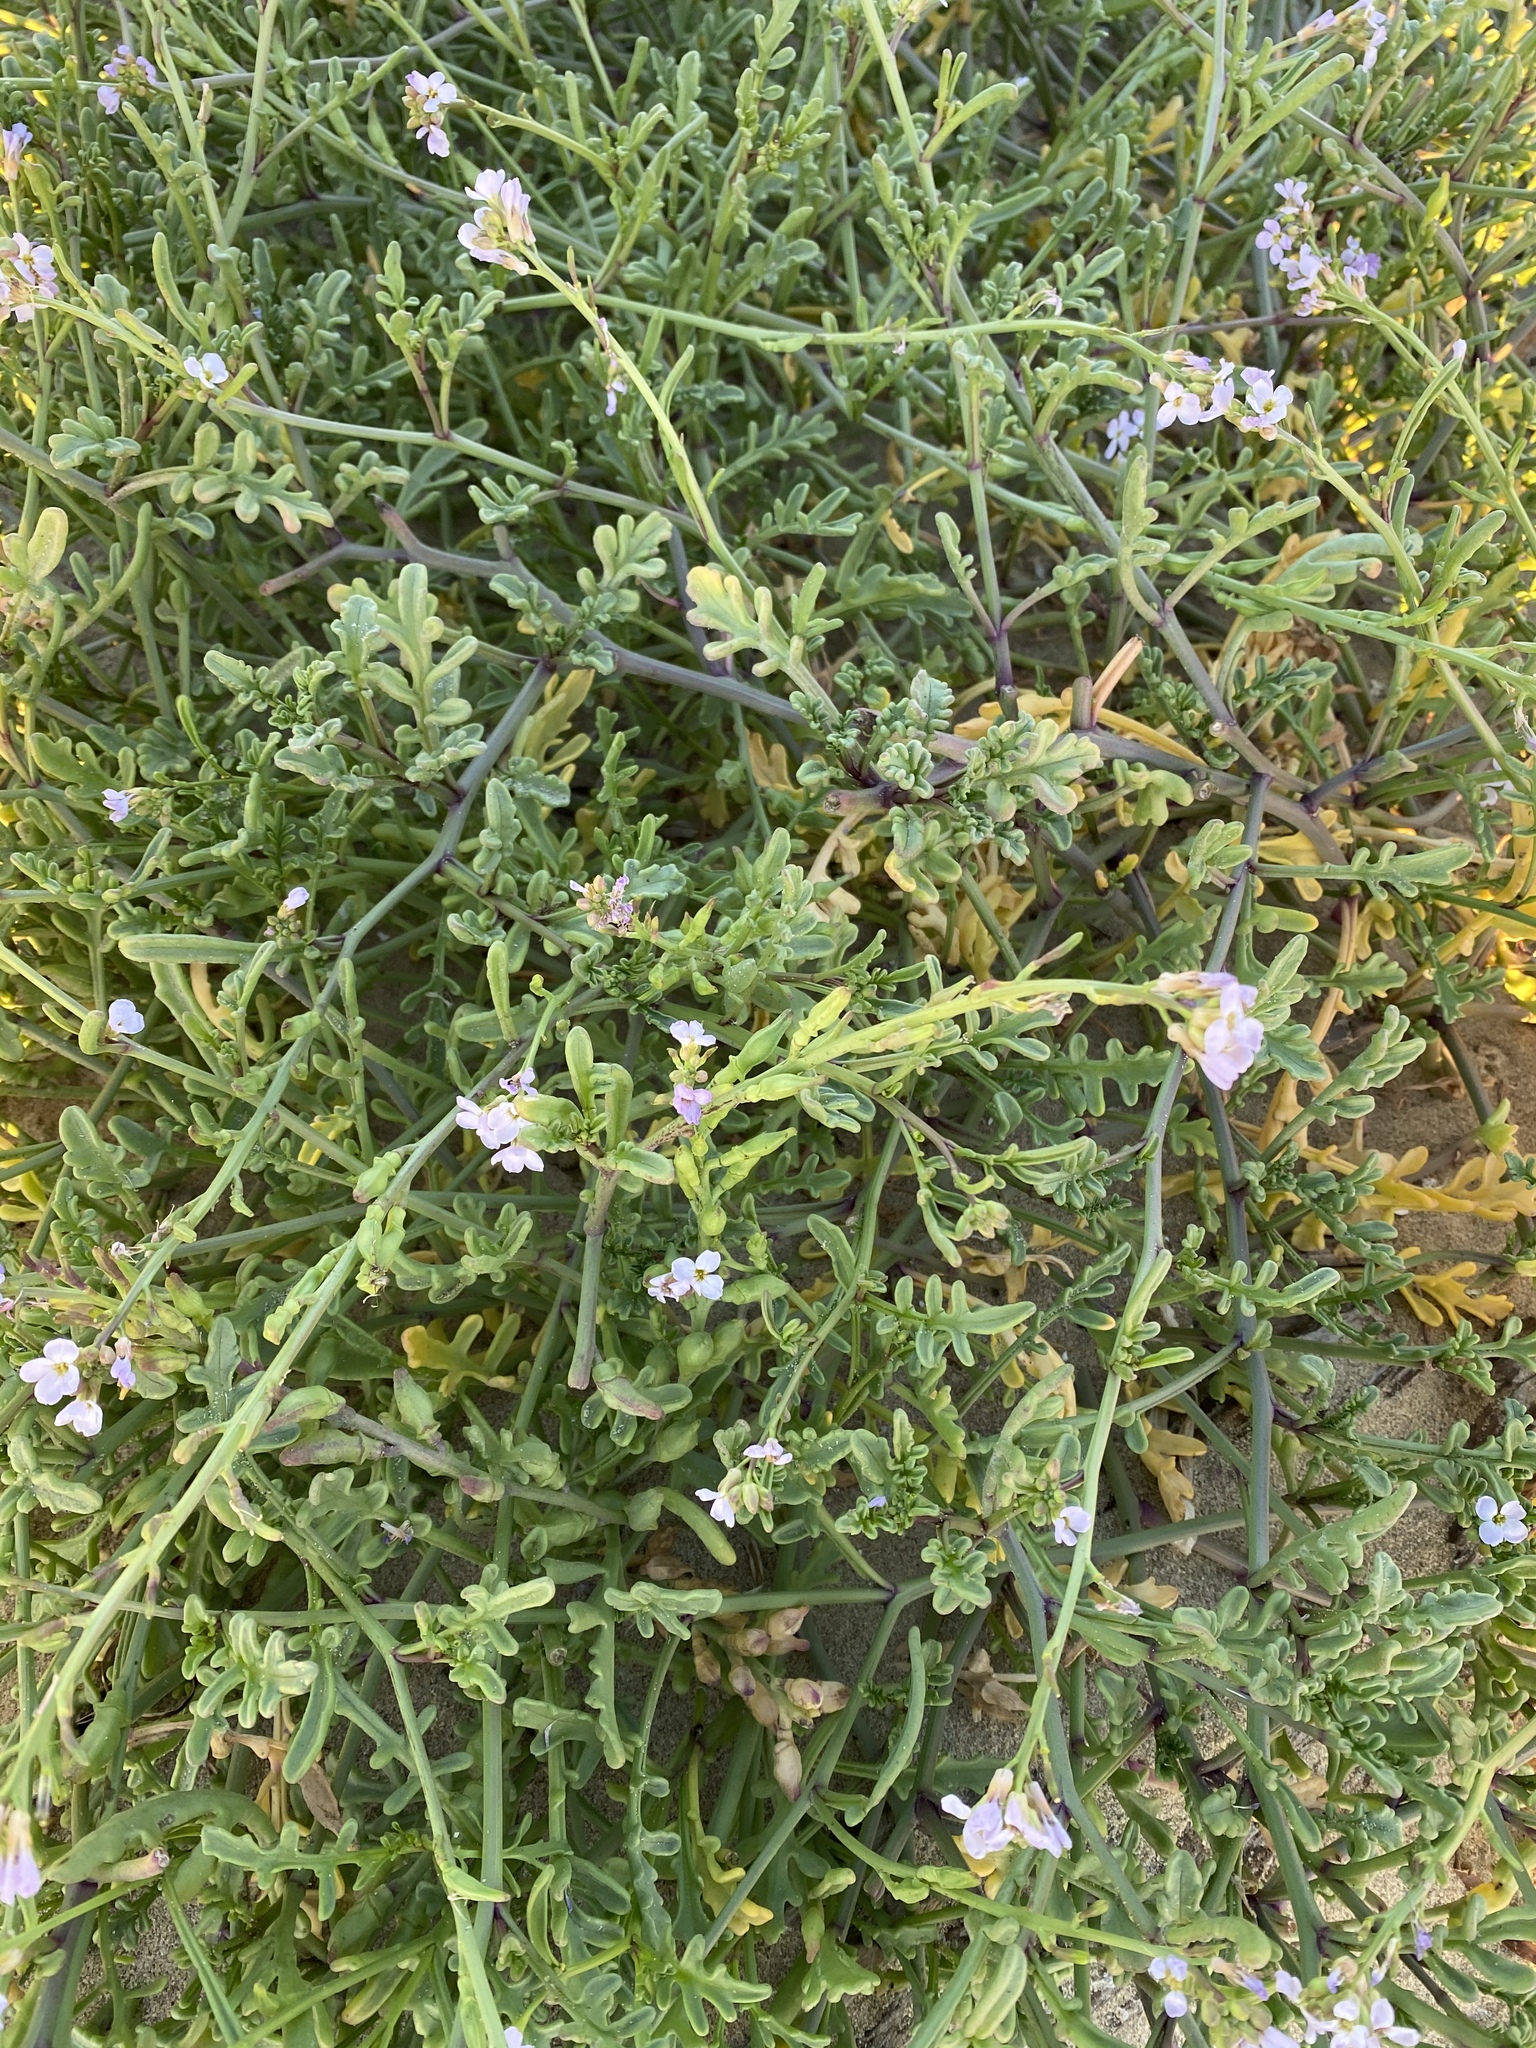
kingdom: Plantae
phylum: Tracheophyta
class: Magnoliopsida
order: Brassicales
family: Brassicaceae
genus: Cakile
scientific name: Cakile maritima
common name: Sea rocket
